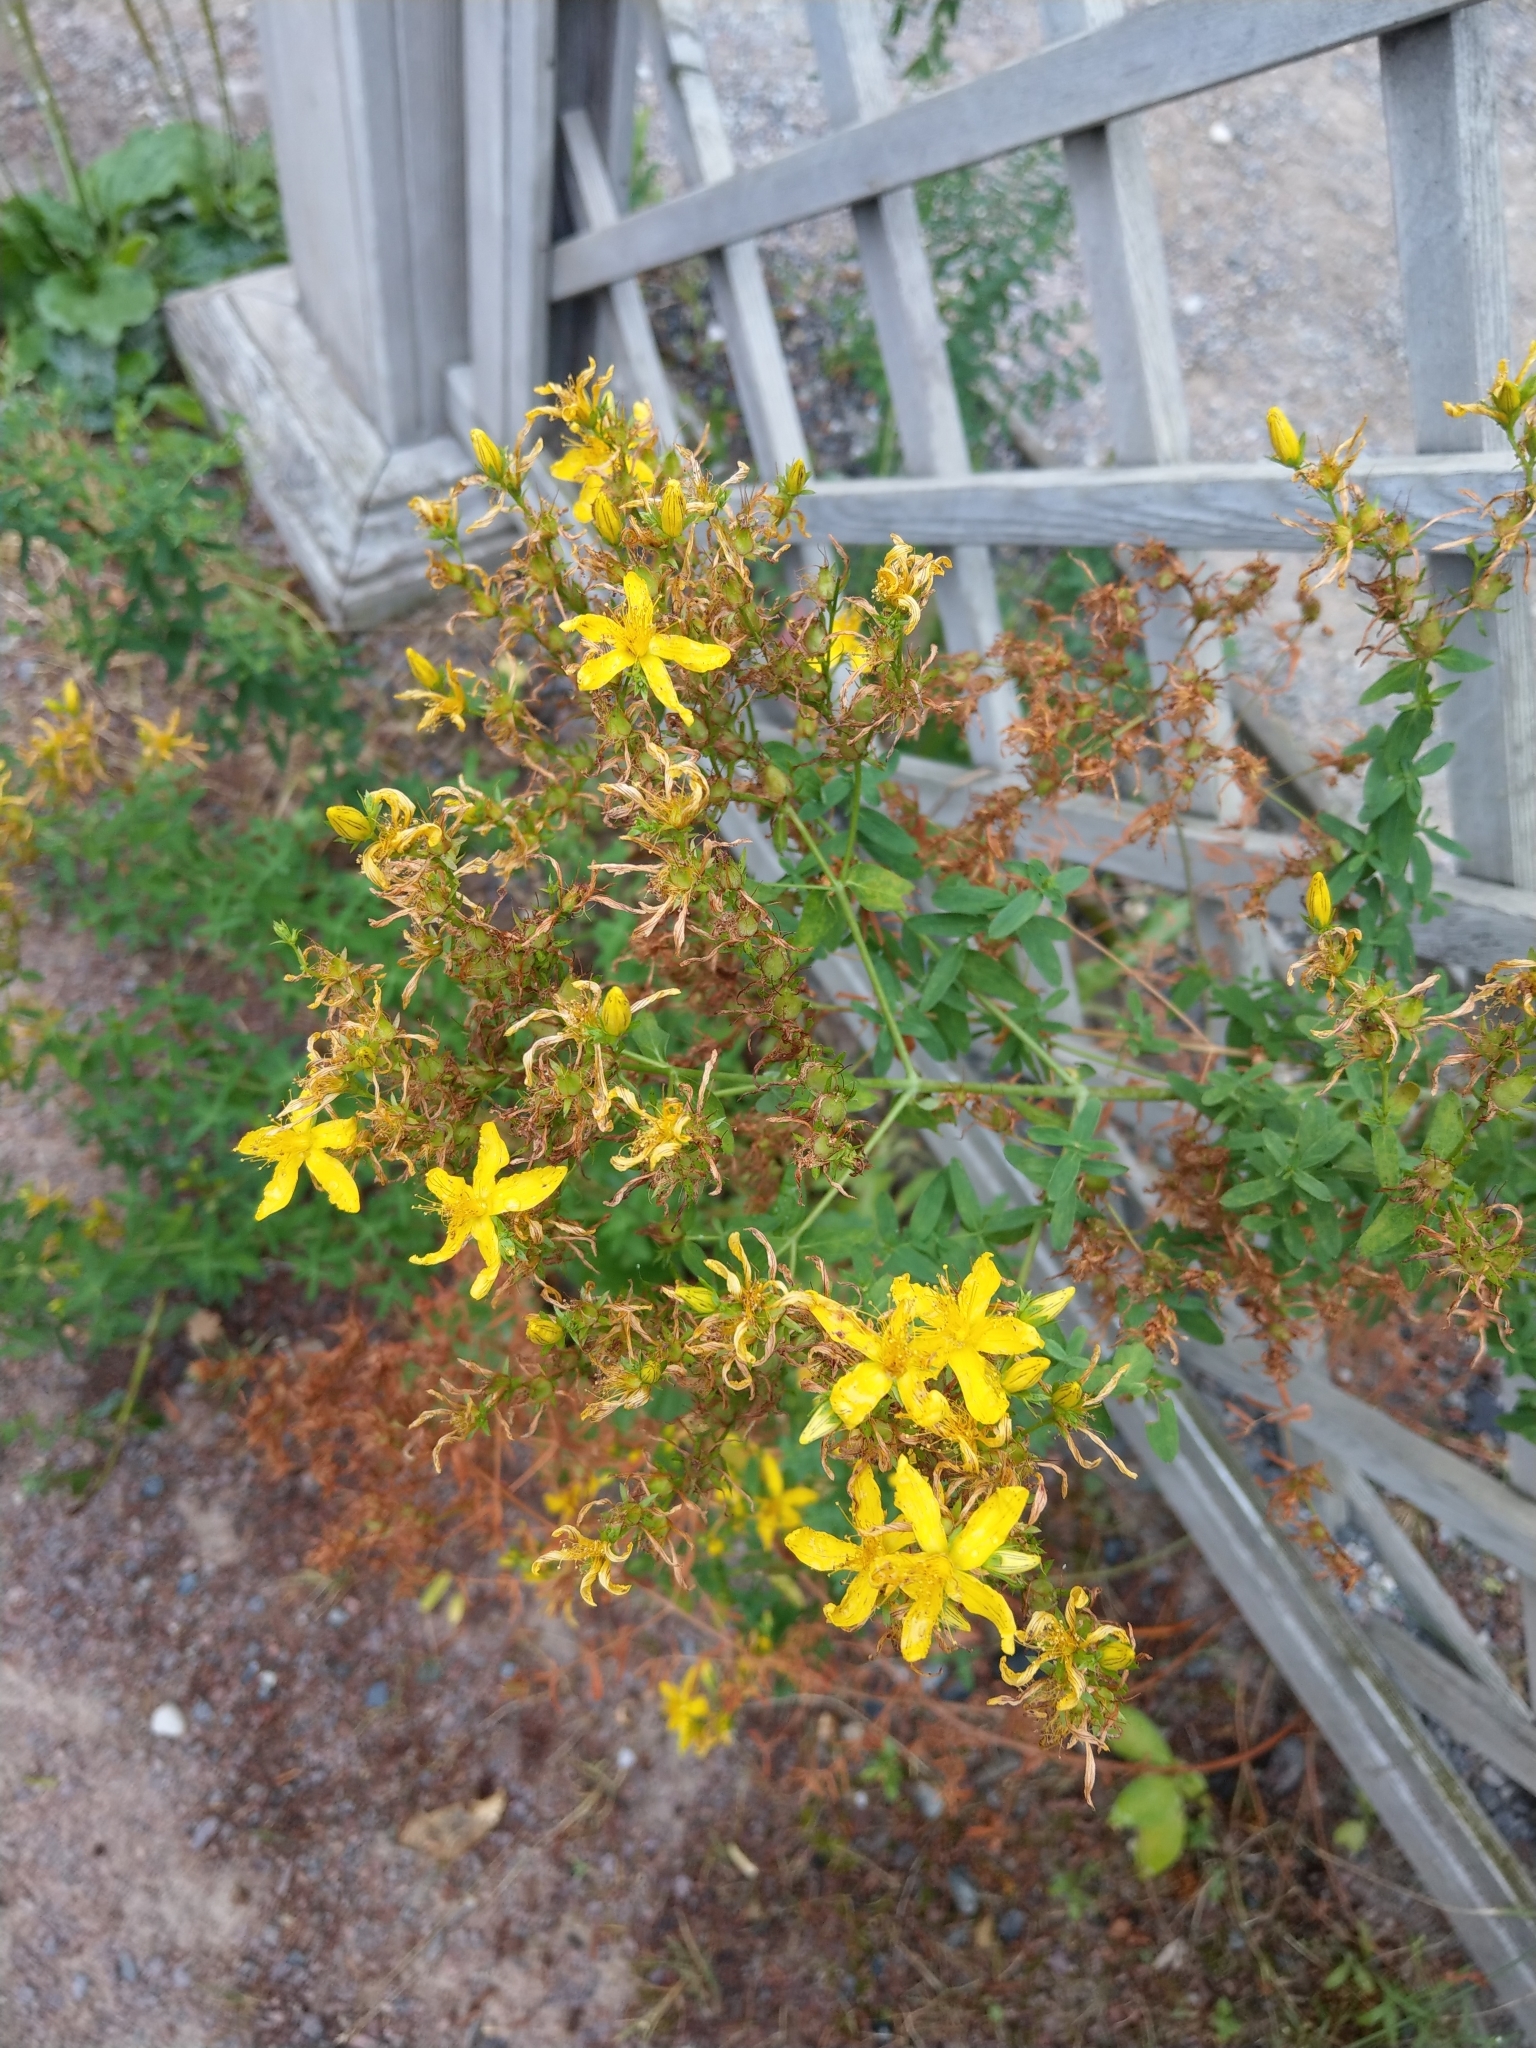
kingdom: Plantae
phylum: Tracheophyta
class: Magnoliopsida
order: Malpighiales
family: Hypericaceae
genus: Hypericum
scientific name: Hypericum perforatum
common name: Common st. johnswort
